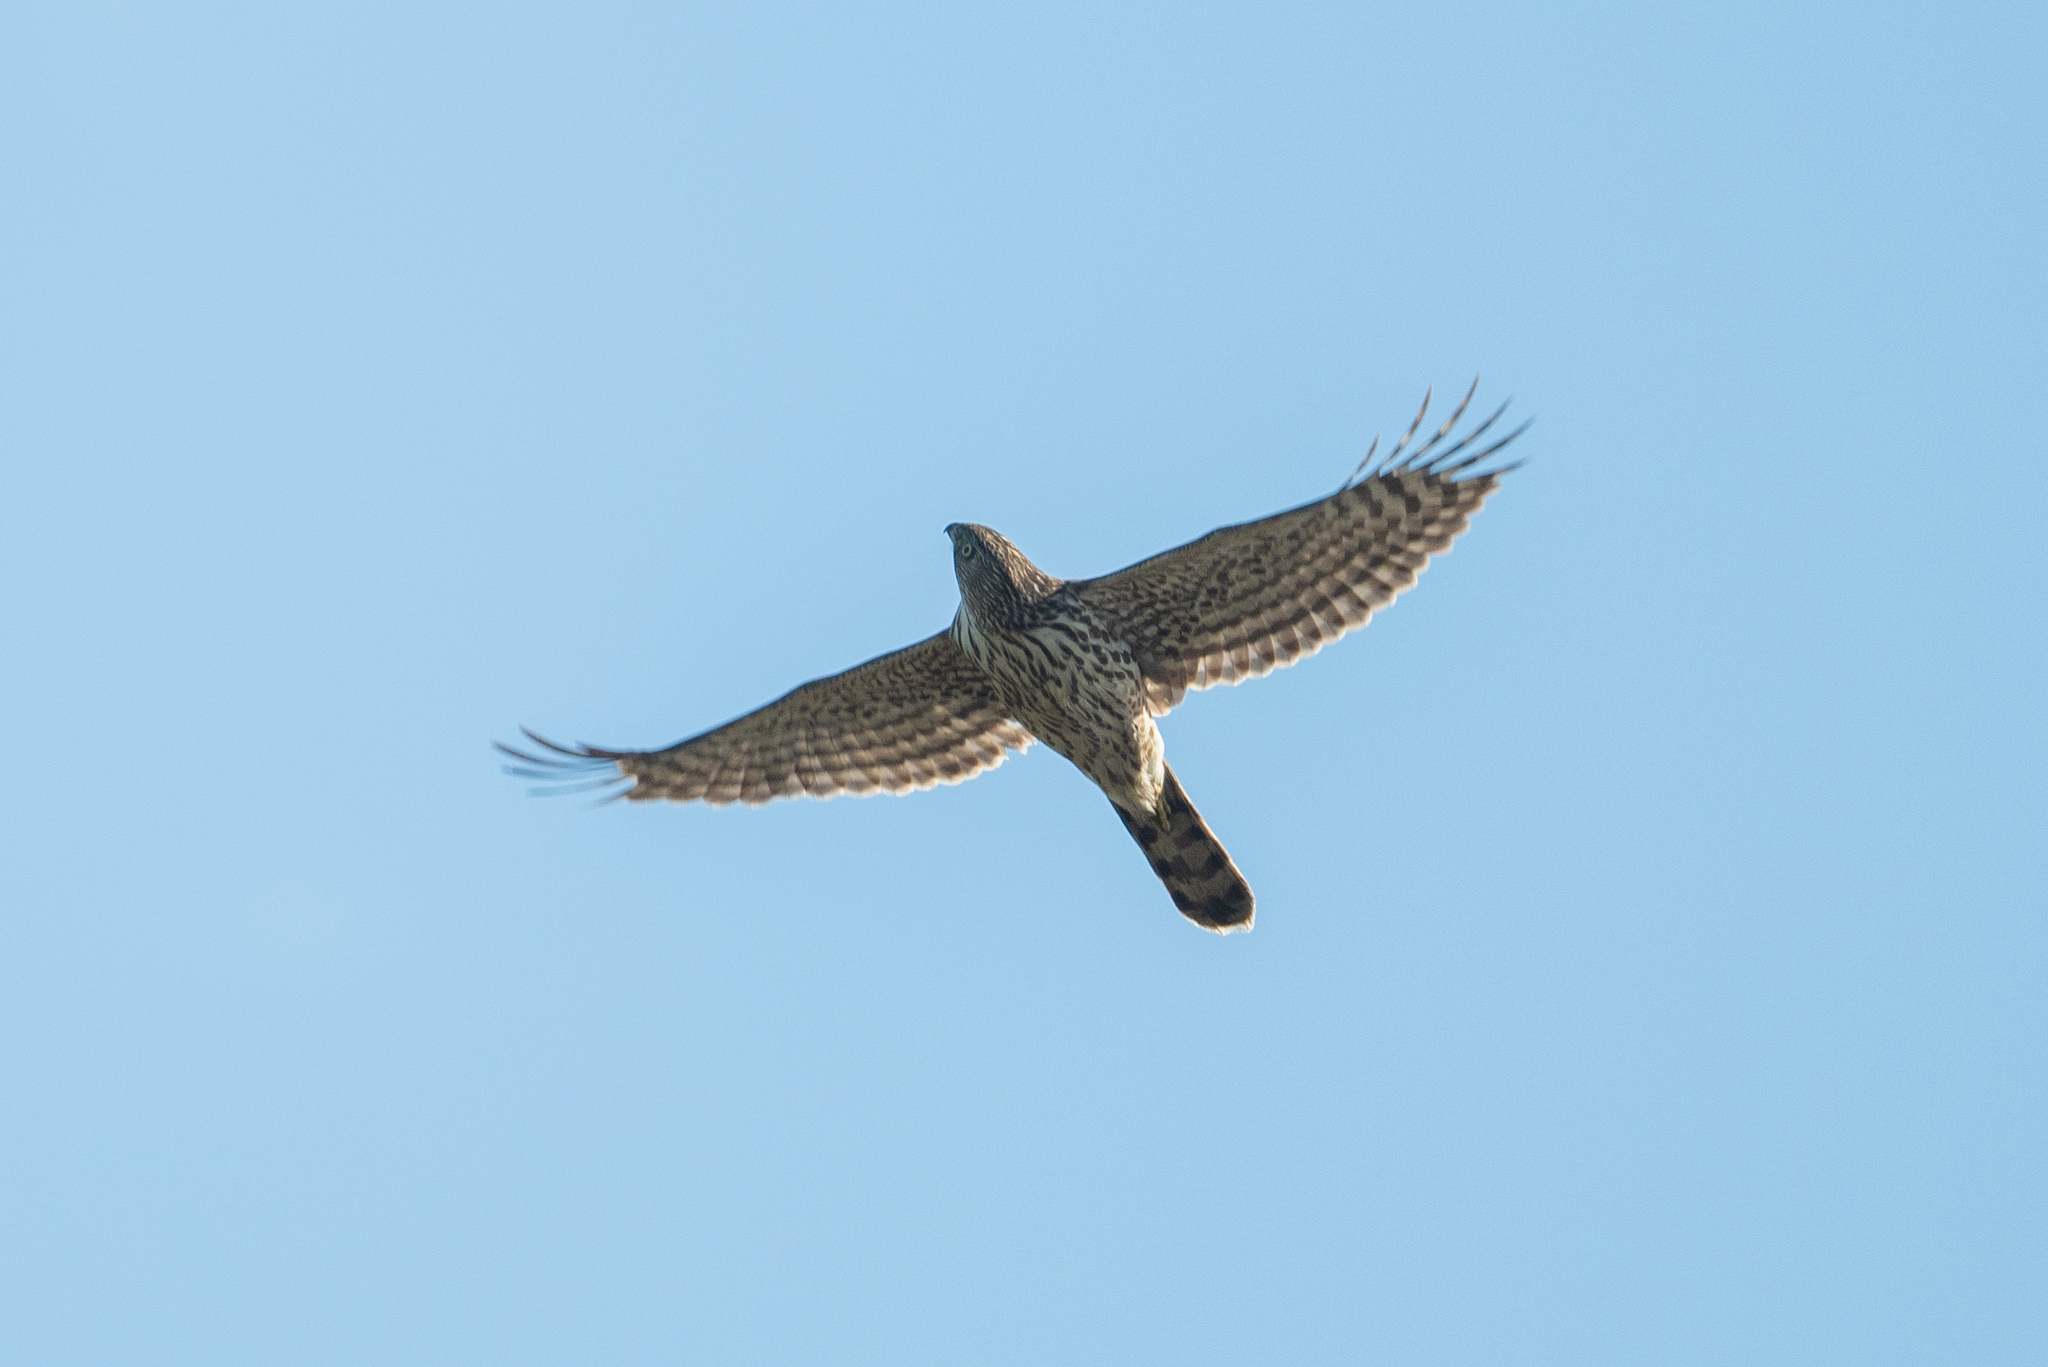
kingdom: Animalia
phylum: Chordata
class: Aves
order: Accipitriformes
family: Accipitridae
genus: Accipiter
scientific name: Accipiter cooperii
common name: Cooper's hawk
